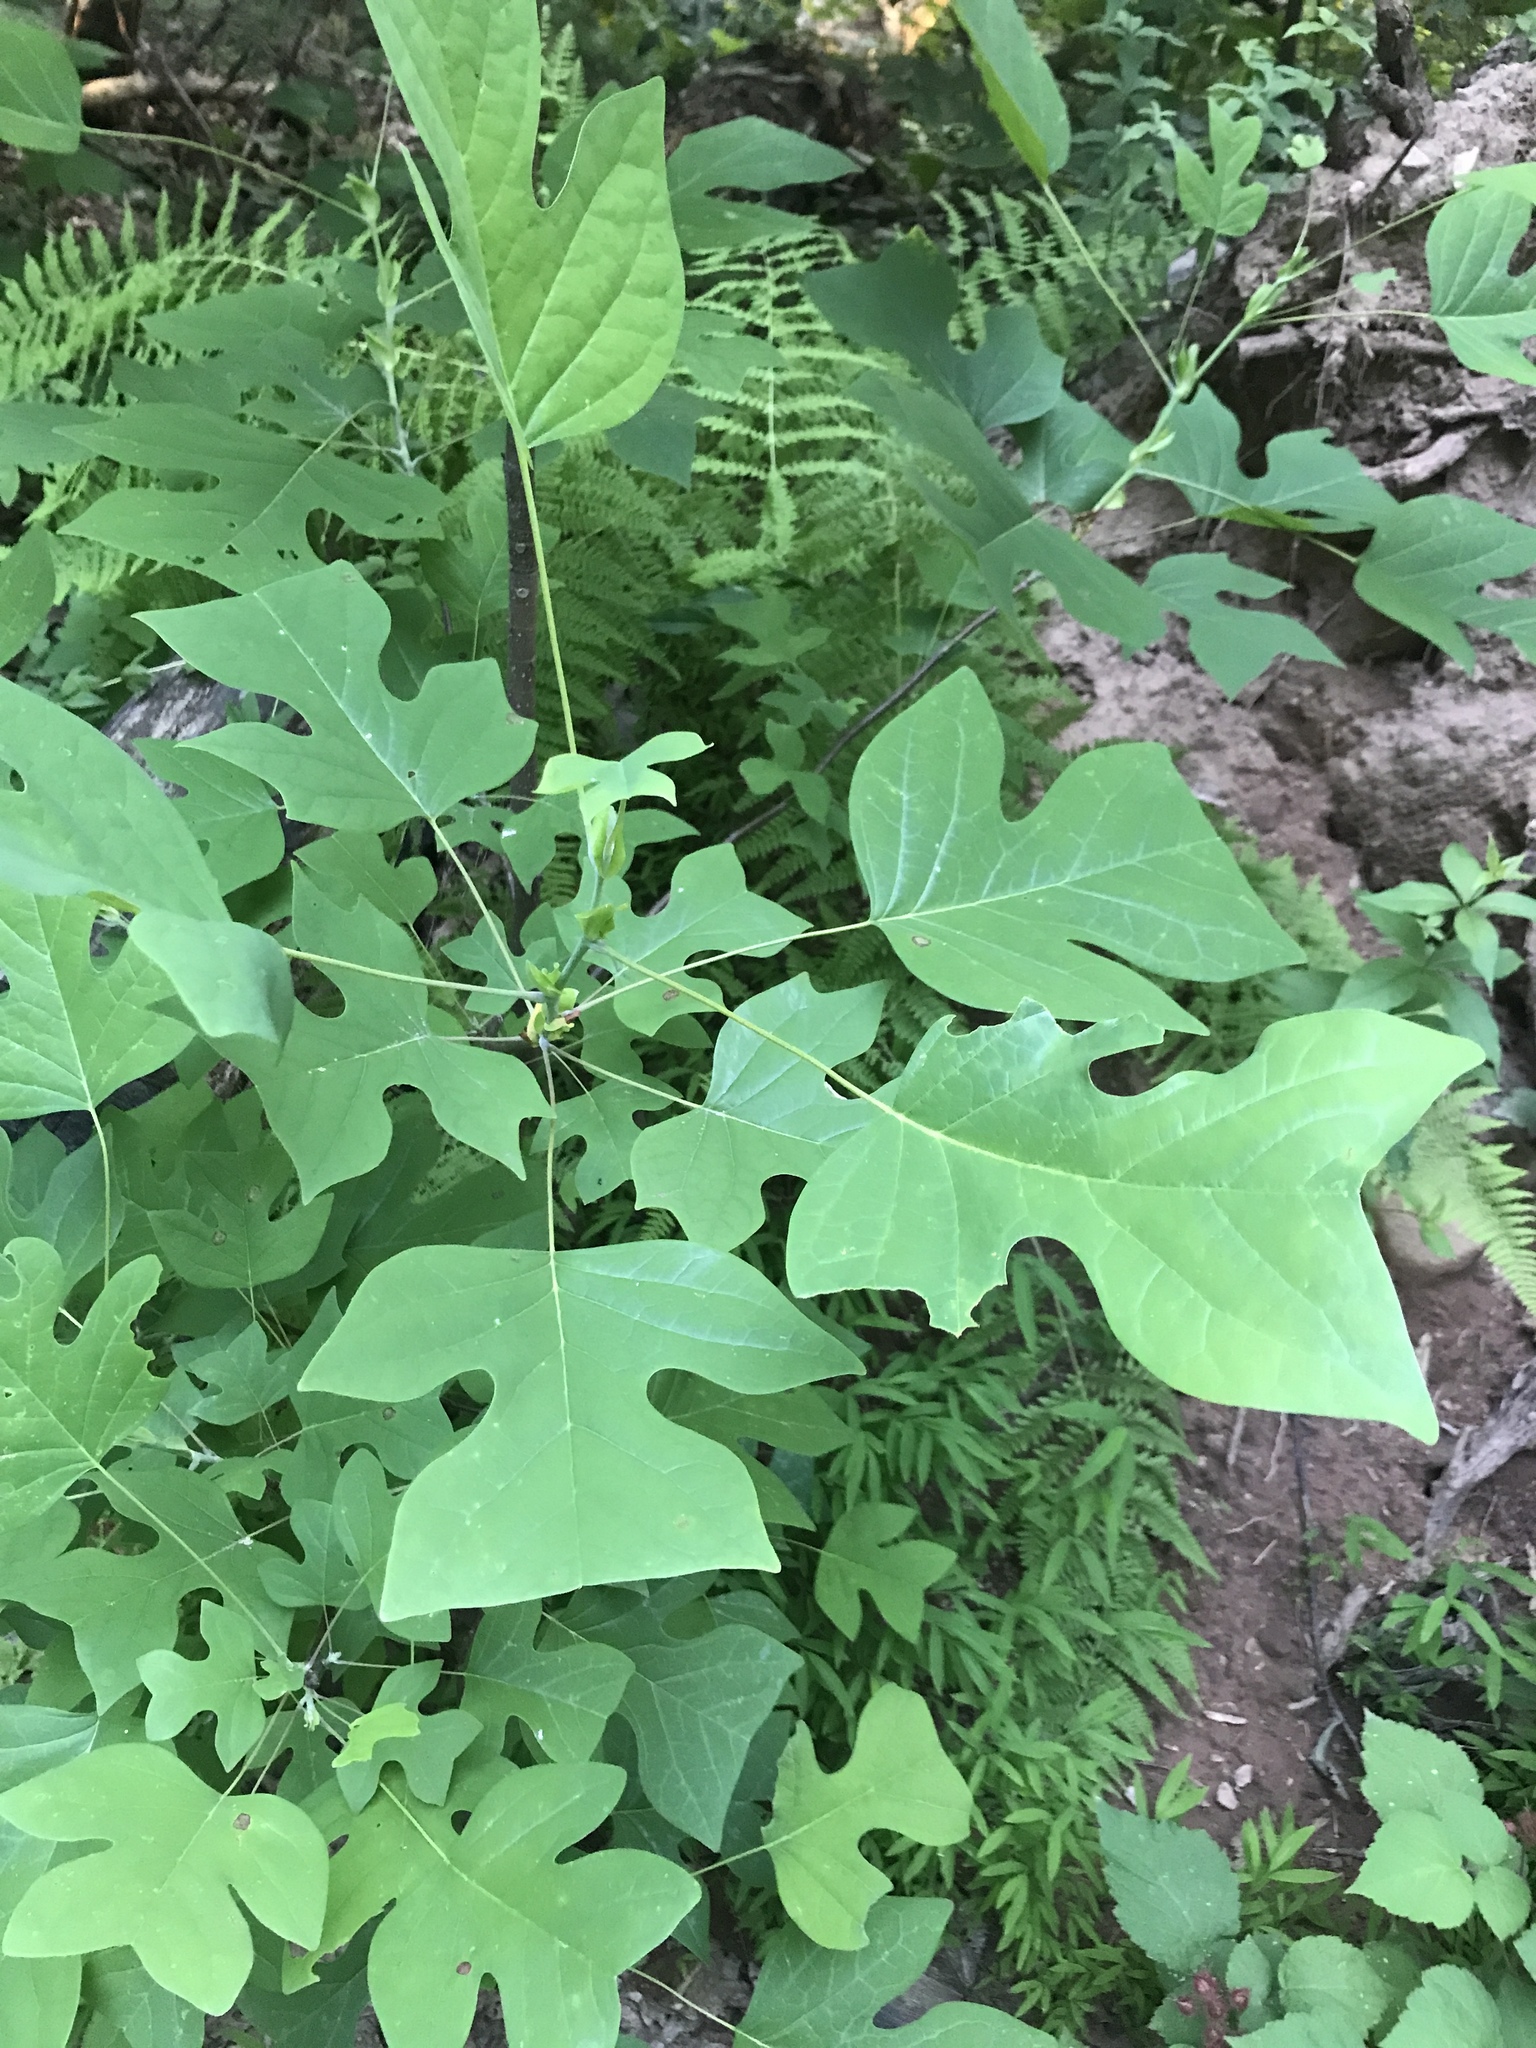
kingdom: Plantae
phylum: Tracheophyta
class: Magnoliopsida
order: Magnoliales
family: Magnoliaceae
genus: Liriodendron
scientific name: Liriodendron tulipifera
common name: Tulip tree
